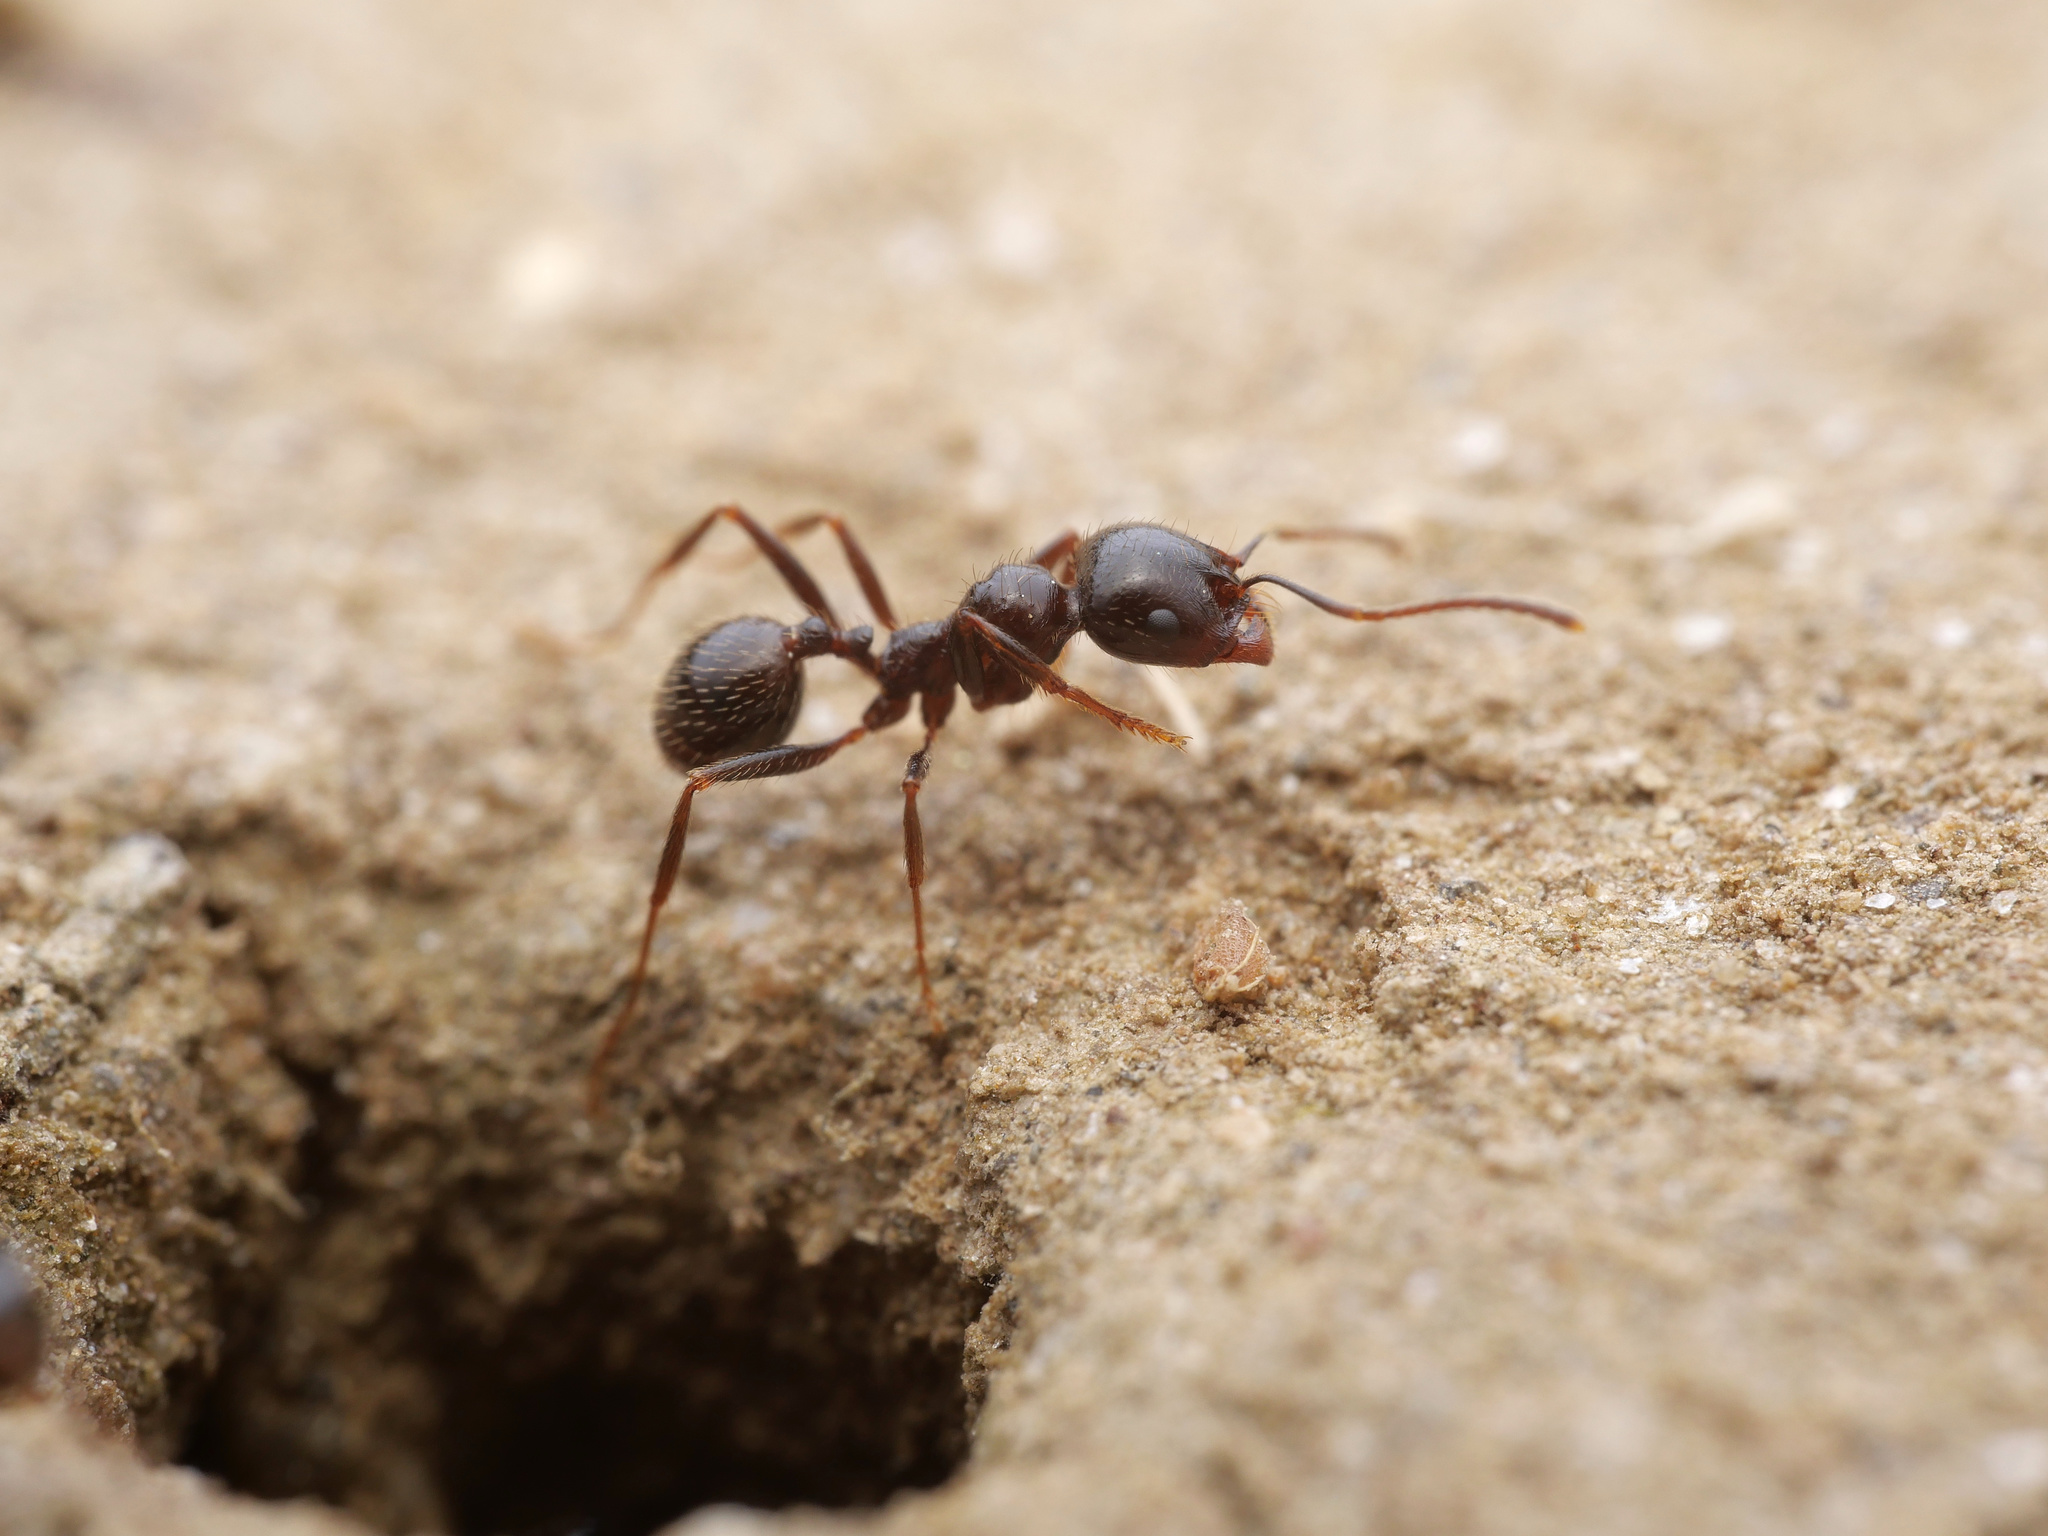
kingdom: Animalia
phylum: Arthropoda
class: Insecta
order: Hymenoptera
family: Formicidae
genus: Messor
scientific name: Messor ibericus
